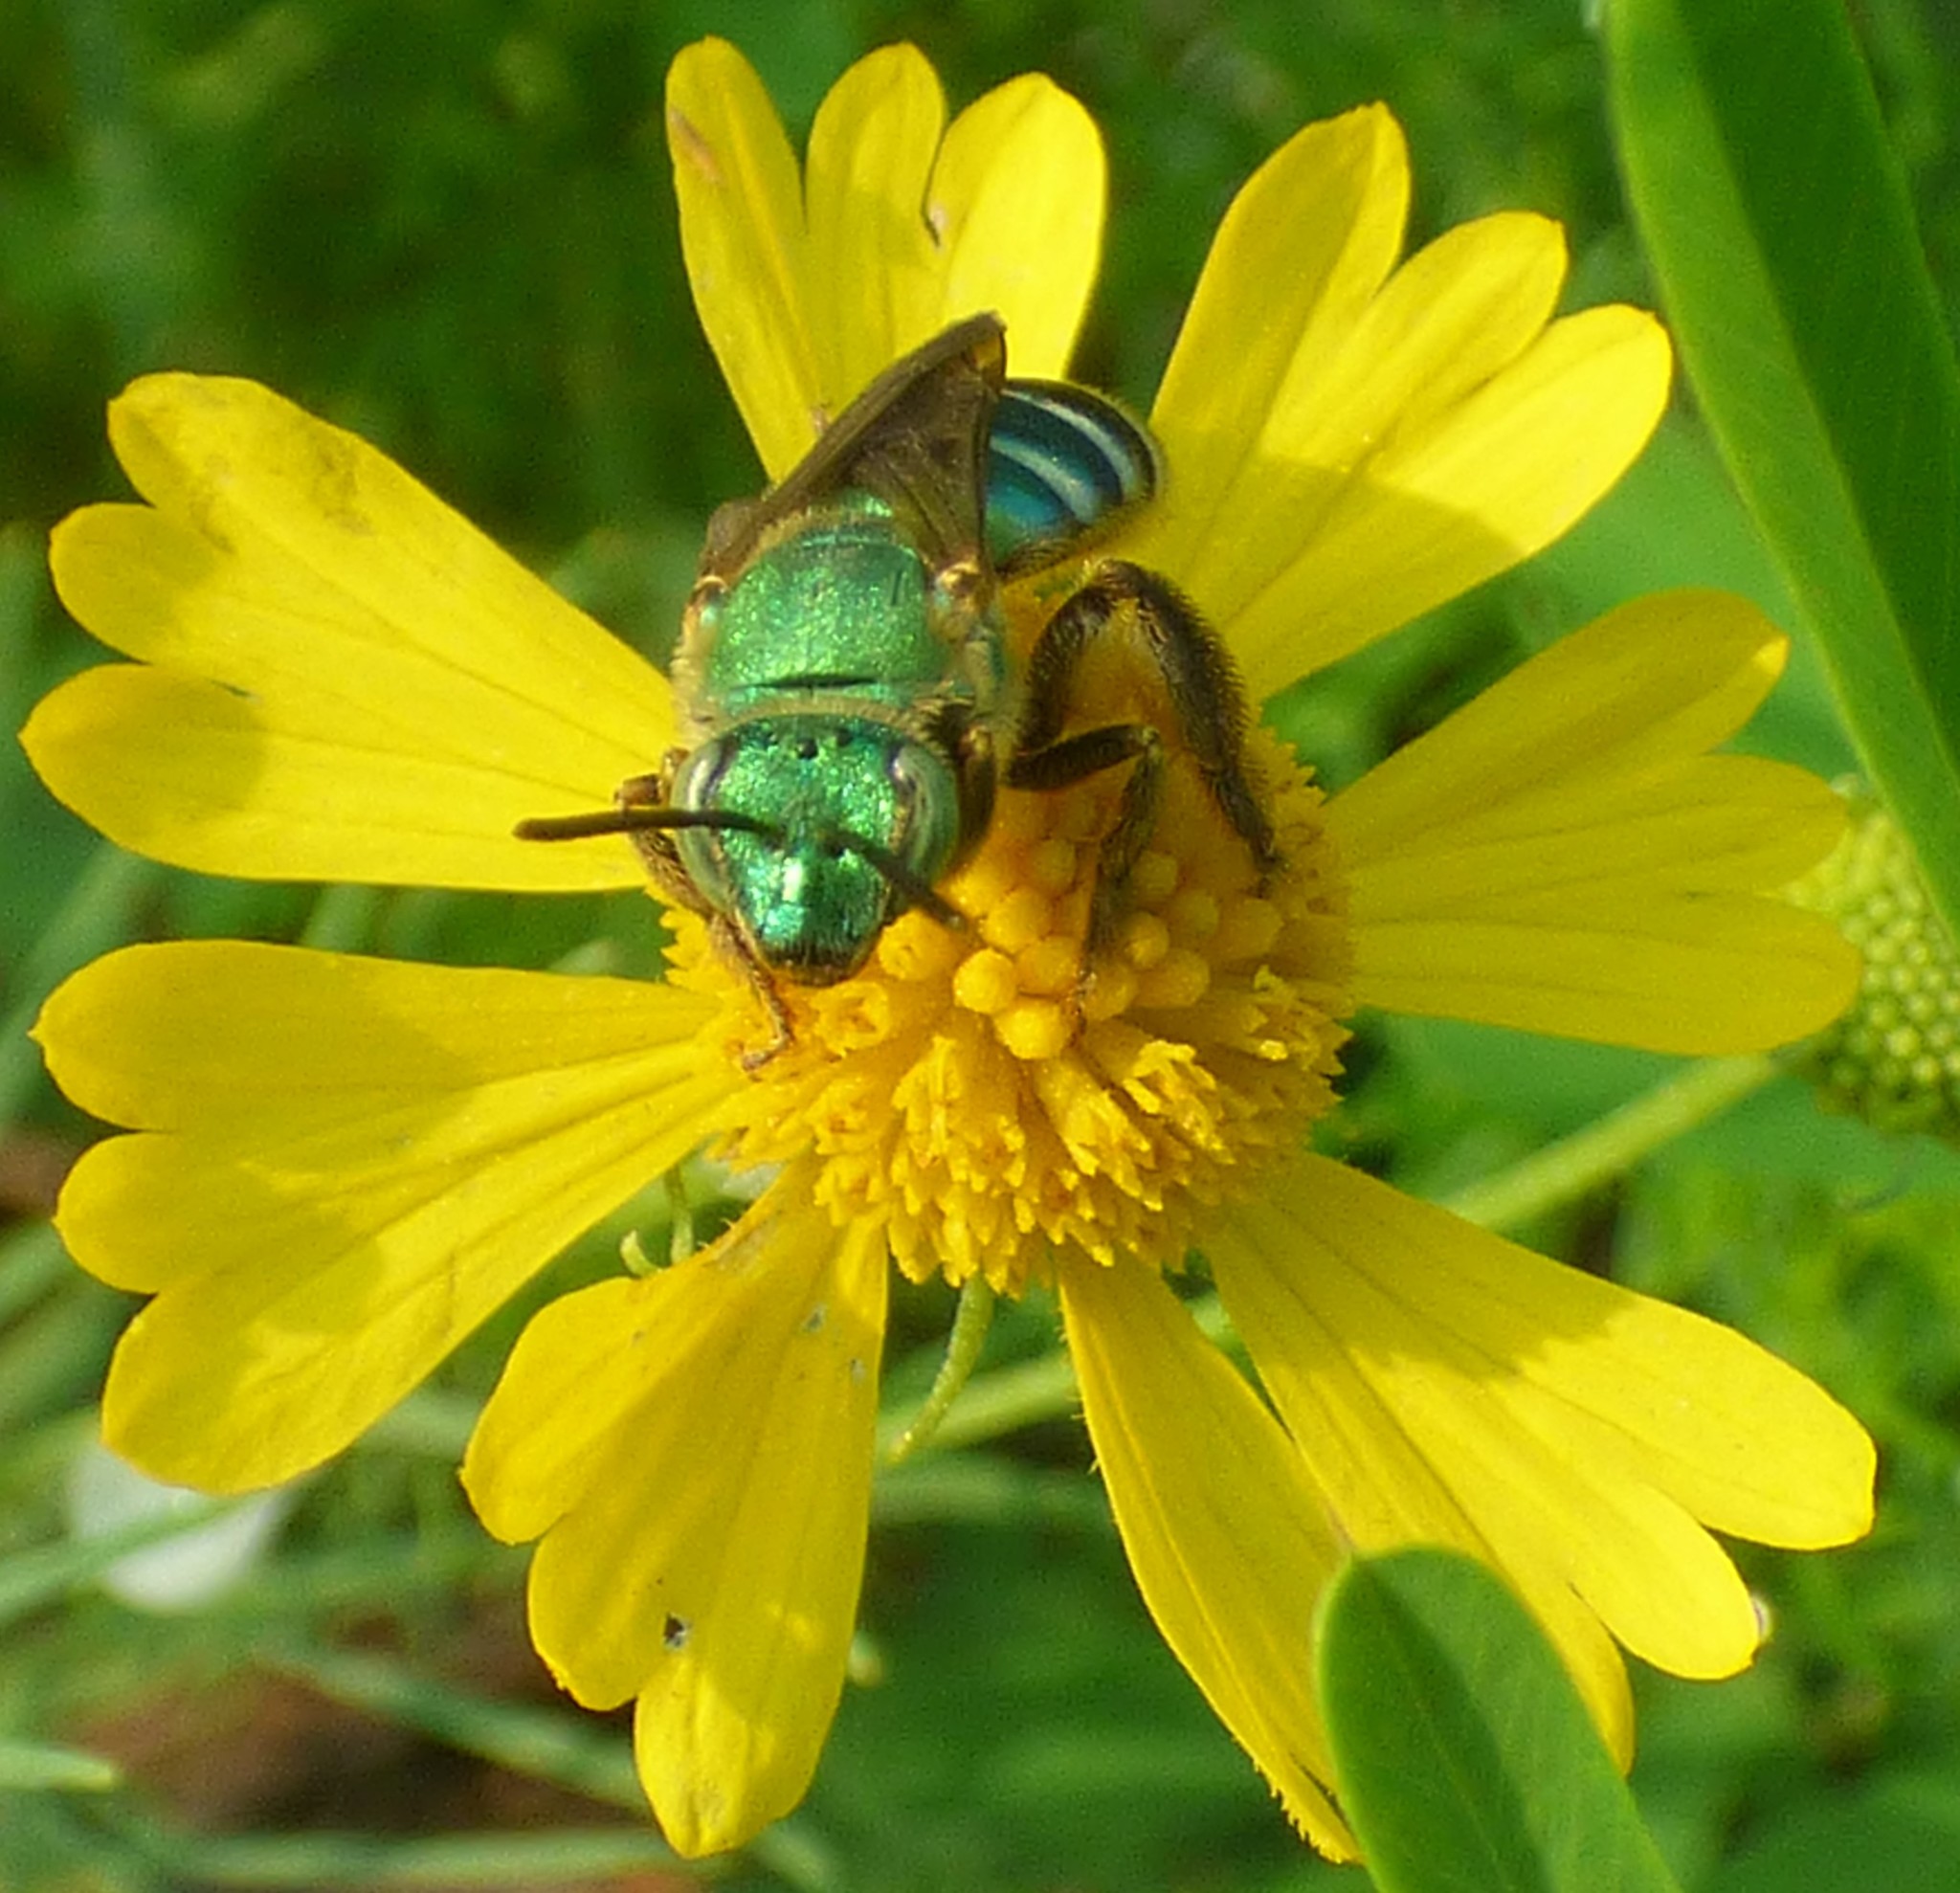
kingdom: Animalia
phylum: Arthropoda
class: Insecta
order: Hymenoptera
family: Halictidae
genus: Agapostemon
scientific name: Agapostemon splendens
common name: Brown-winged striped sweat bee
